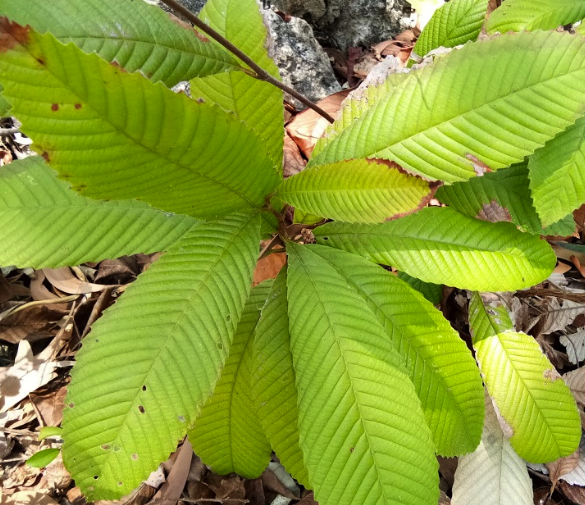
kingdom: Plantae
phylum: Tracheophyta
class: Magnoliopsida
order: Dilleniales
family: Dilleniaceae
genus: Dillenia
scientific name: Dillenia indica
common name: Elephant apple
